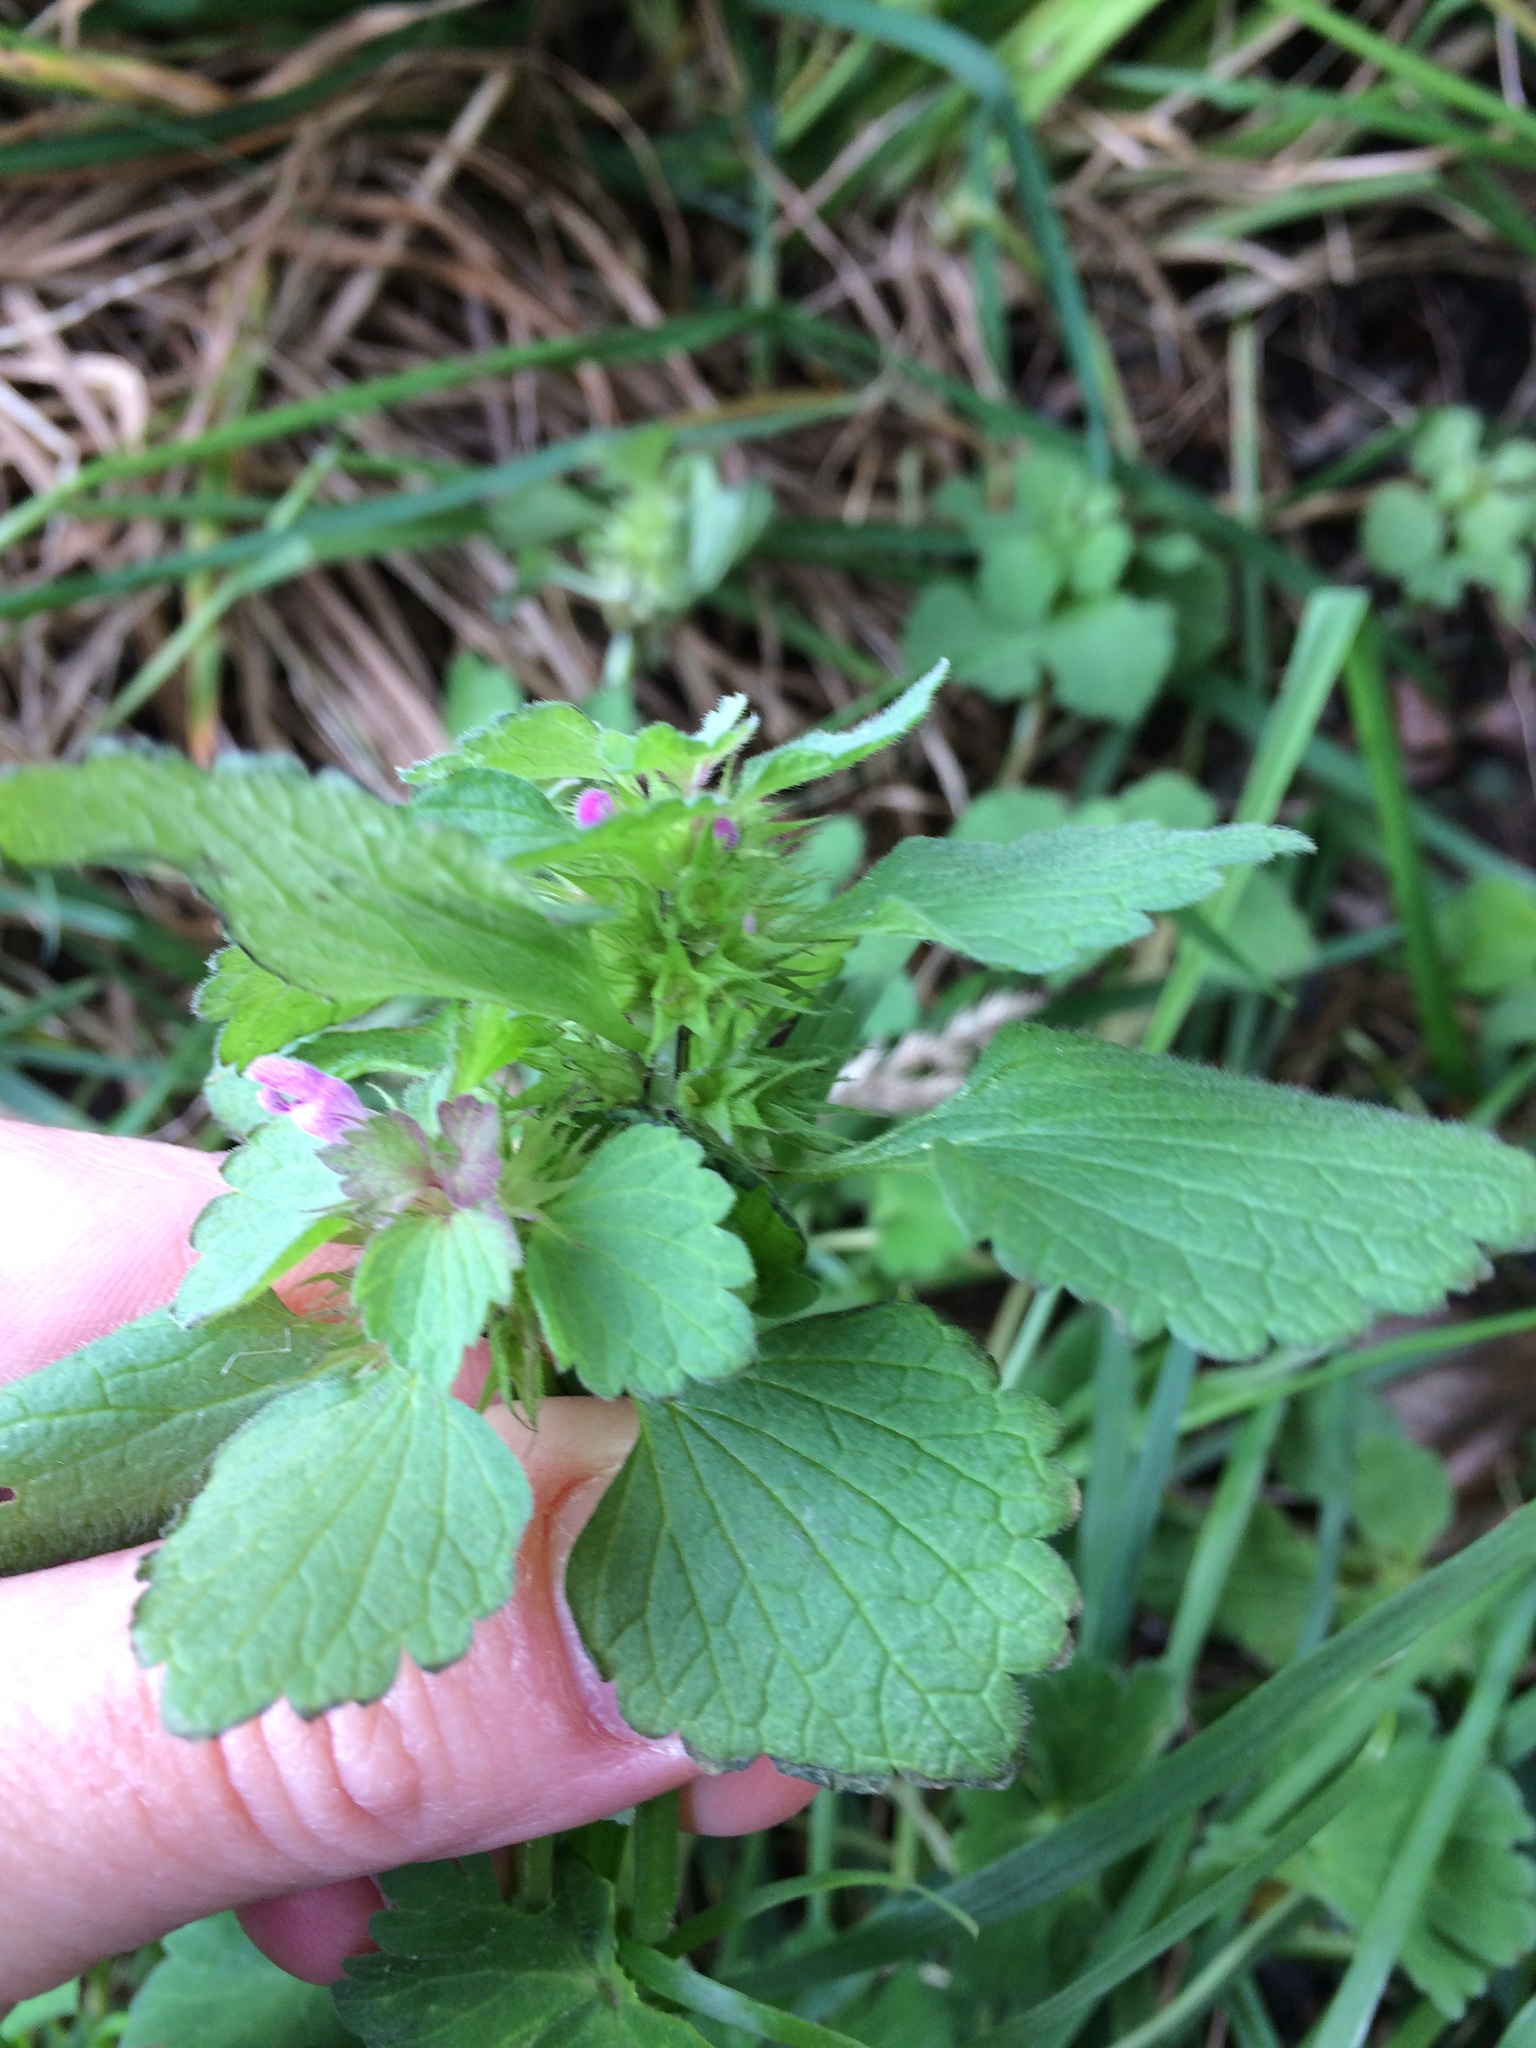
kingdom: Plantae
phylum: Tracheophyta
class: Magnoliopsida
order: Lamiales
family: Lamiaceae
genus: Lamium
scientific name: Lamium purpureum
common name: Red dead-nettle
